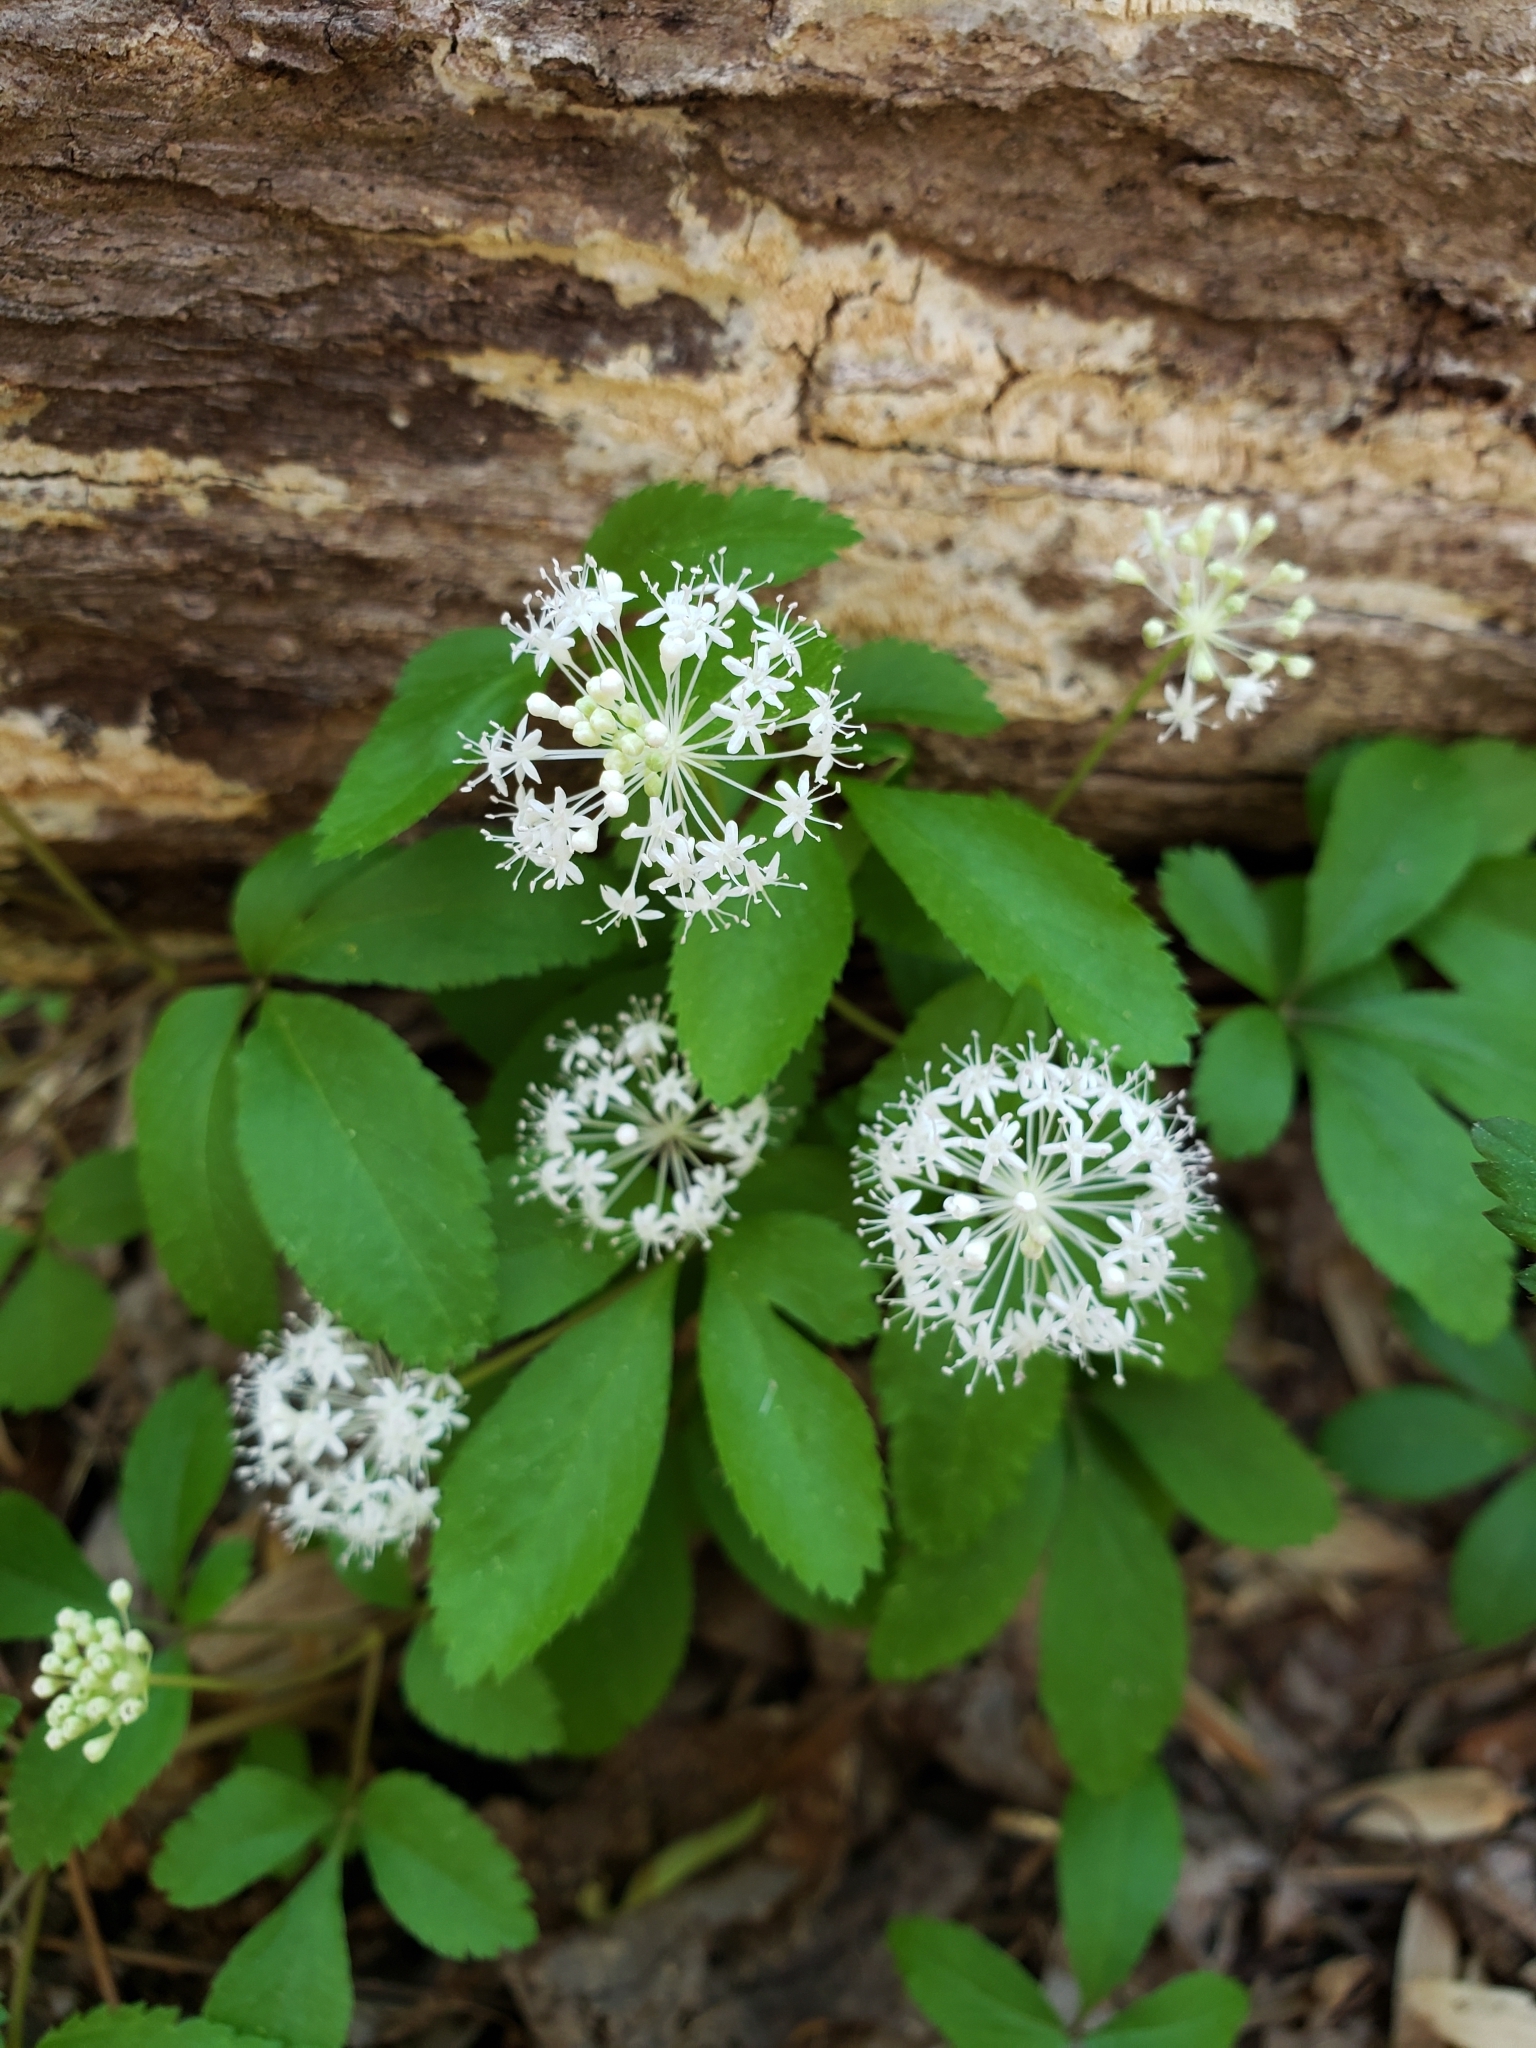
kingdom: Plantae
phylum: Tracheophyta
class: Magnoliopsida
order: Apiales
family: Araliaceae
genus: Panax
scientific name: Panax trifolius
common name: Dwarf ginseng
